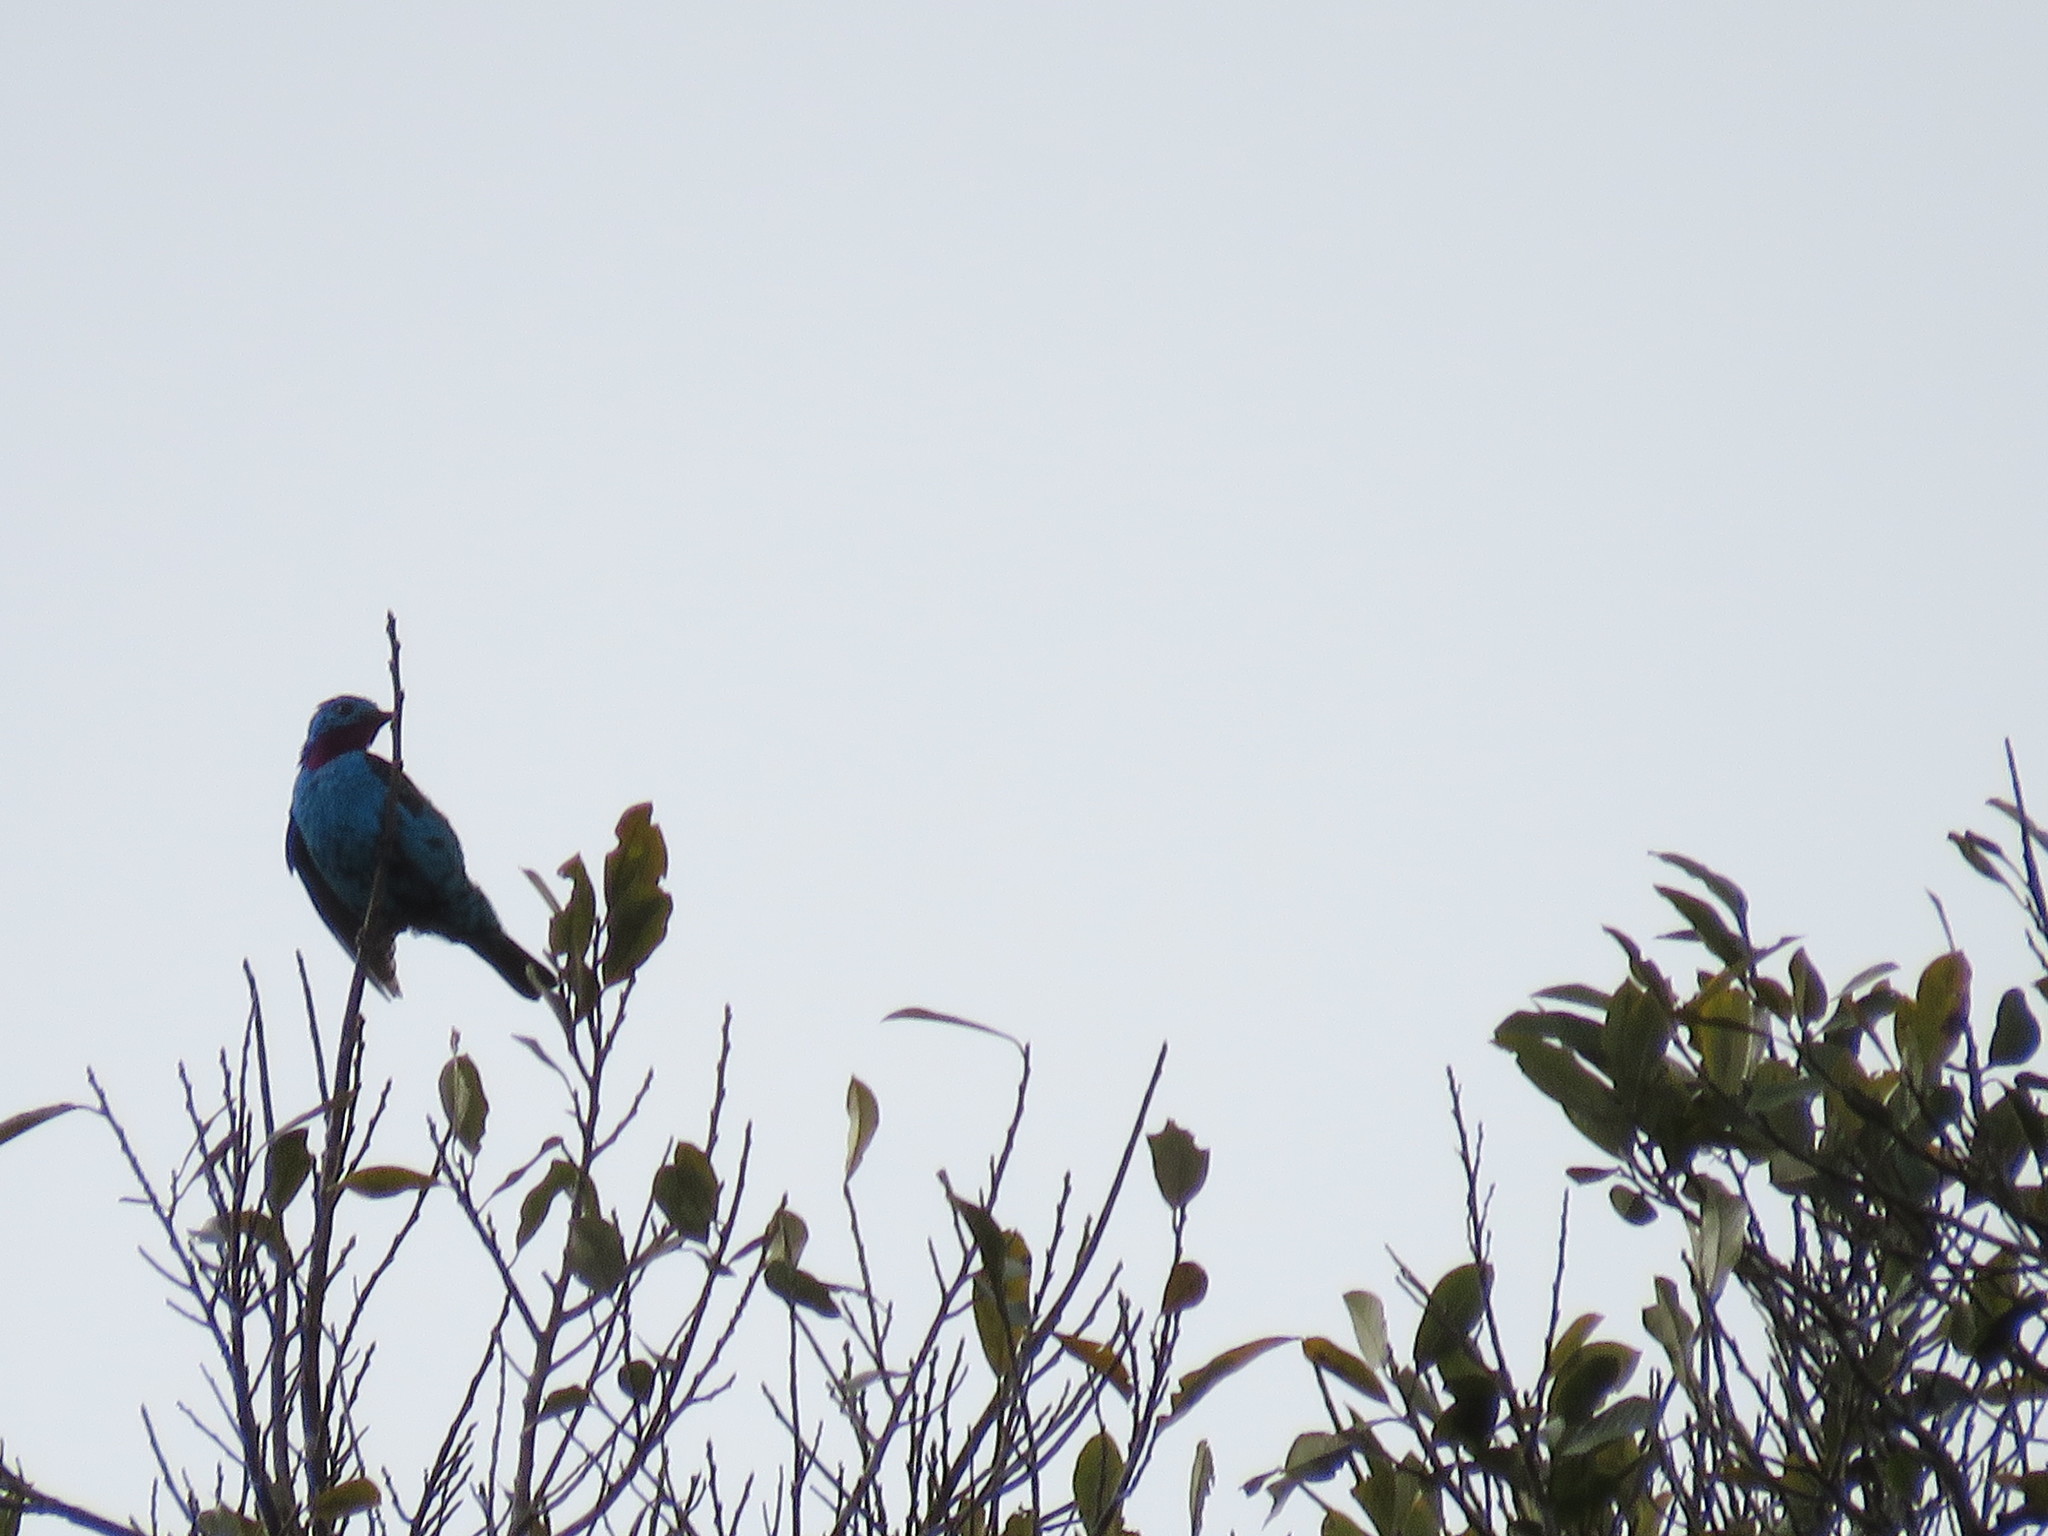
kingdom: Animalia
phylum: Chordata
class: Aves
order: Passeriformes
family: Cotingidae
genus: Cotinga
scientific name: Cotinga cayana
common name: Spangled cotinga
